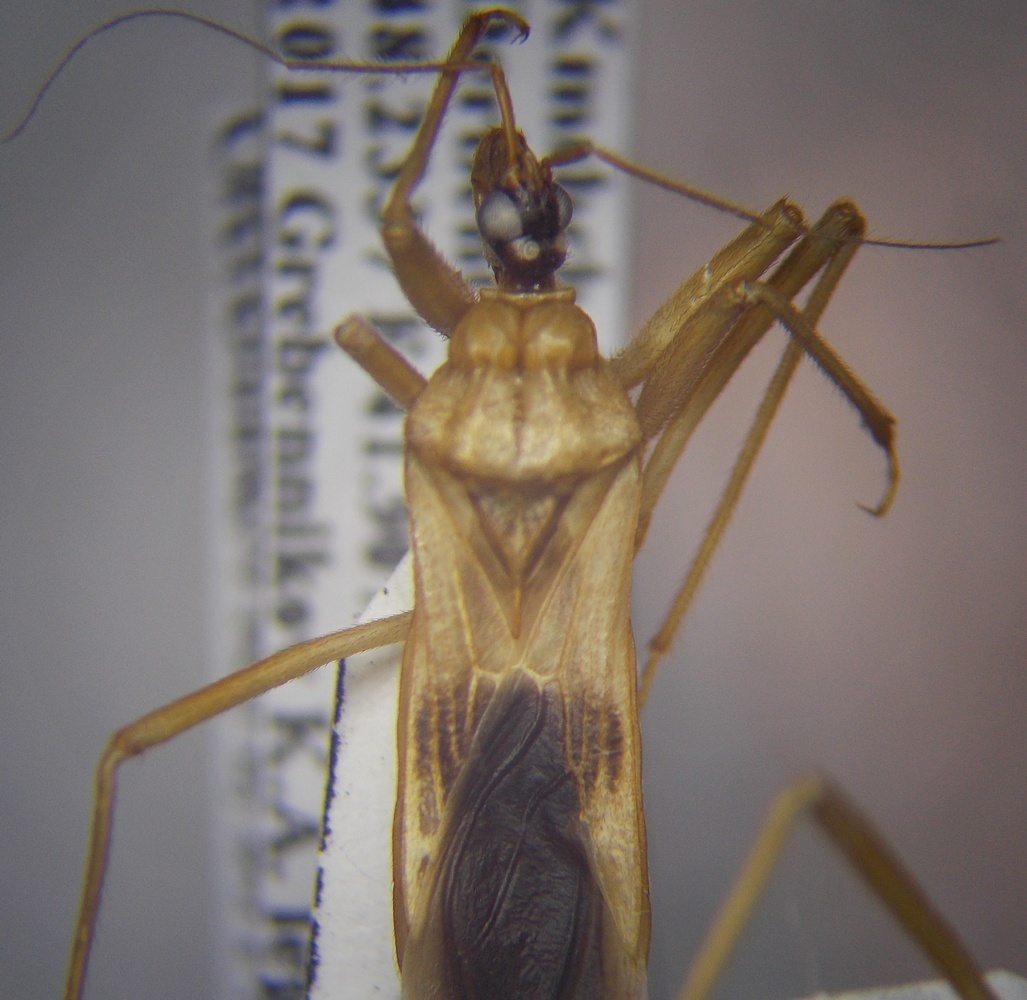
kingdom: Animalia
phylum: Arthropoda
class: Insecta
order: Hemiptera
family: Reduviidae
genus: Reduvius
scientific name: Reduvius testaceus
